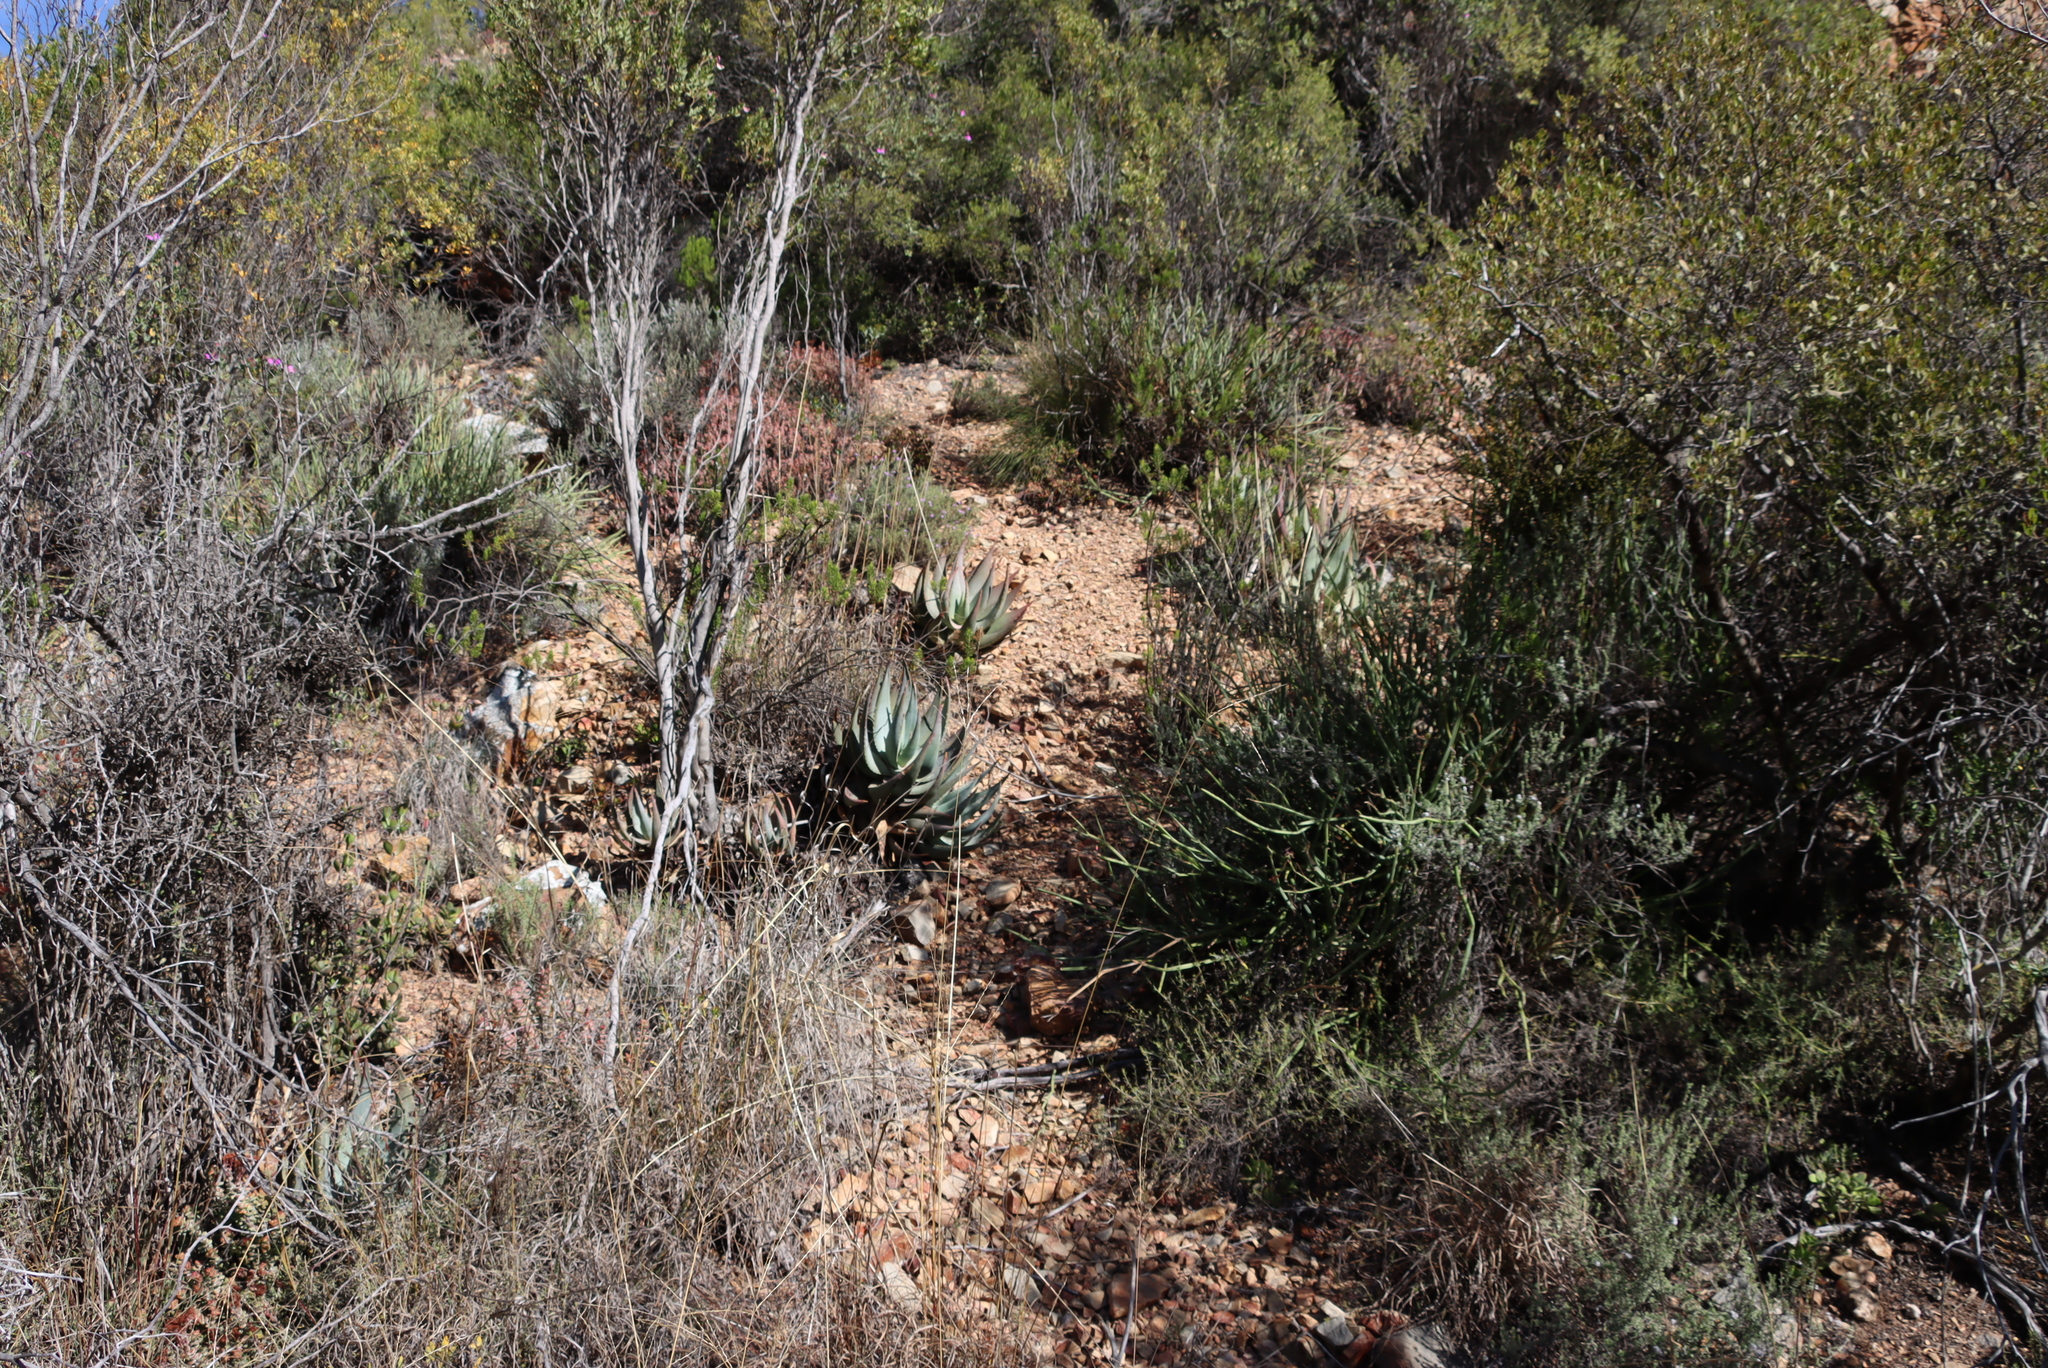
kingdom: Plantae
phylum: Tracheophyta
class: Liliopsida
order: Asparagales
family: Asphodelaceae
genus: Aloe
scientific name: Aloe comptonii
